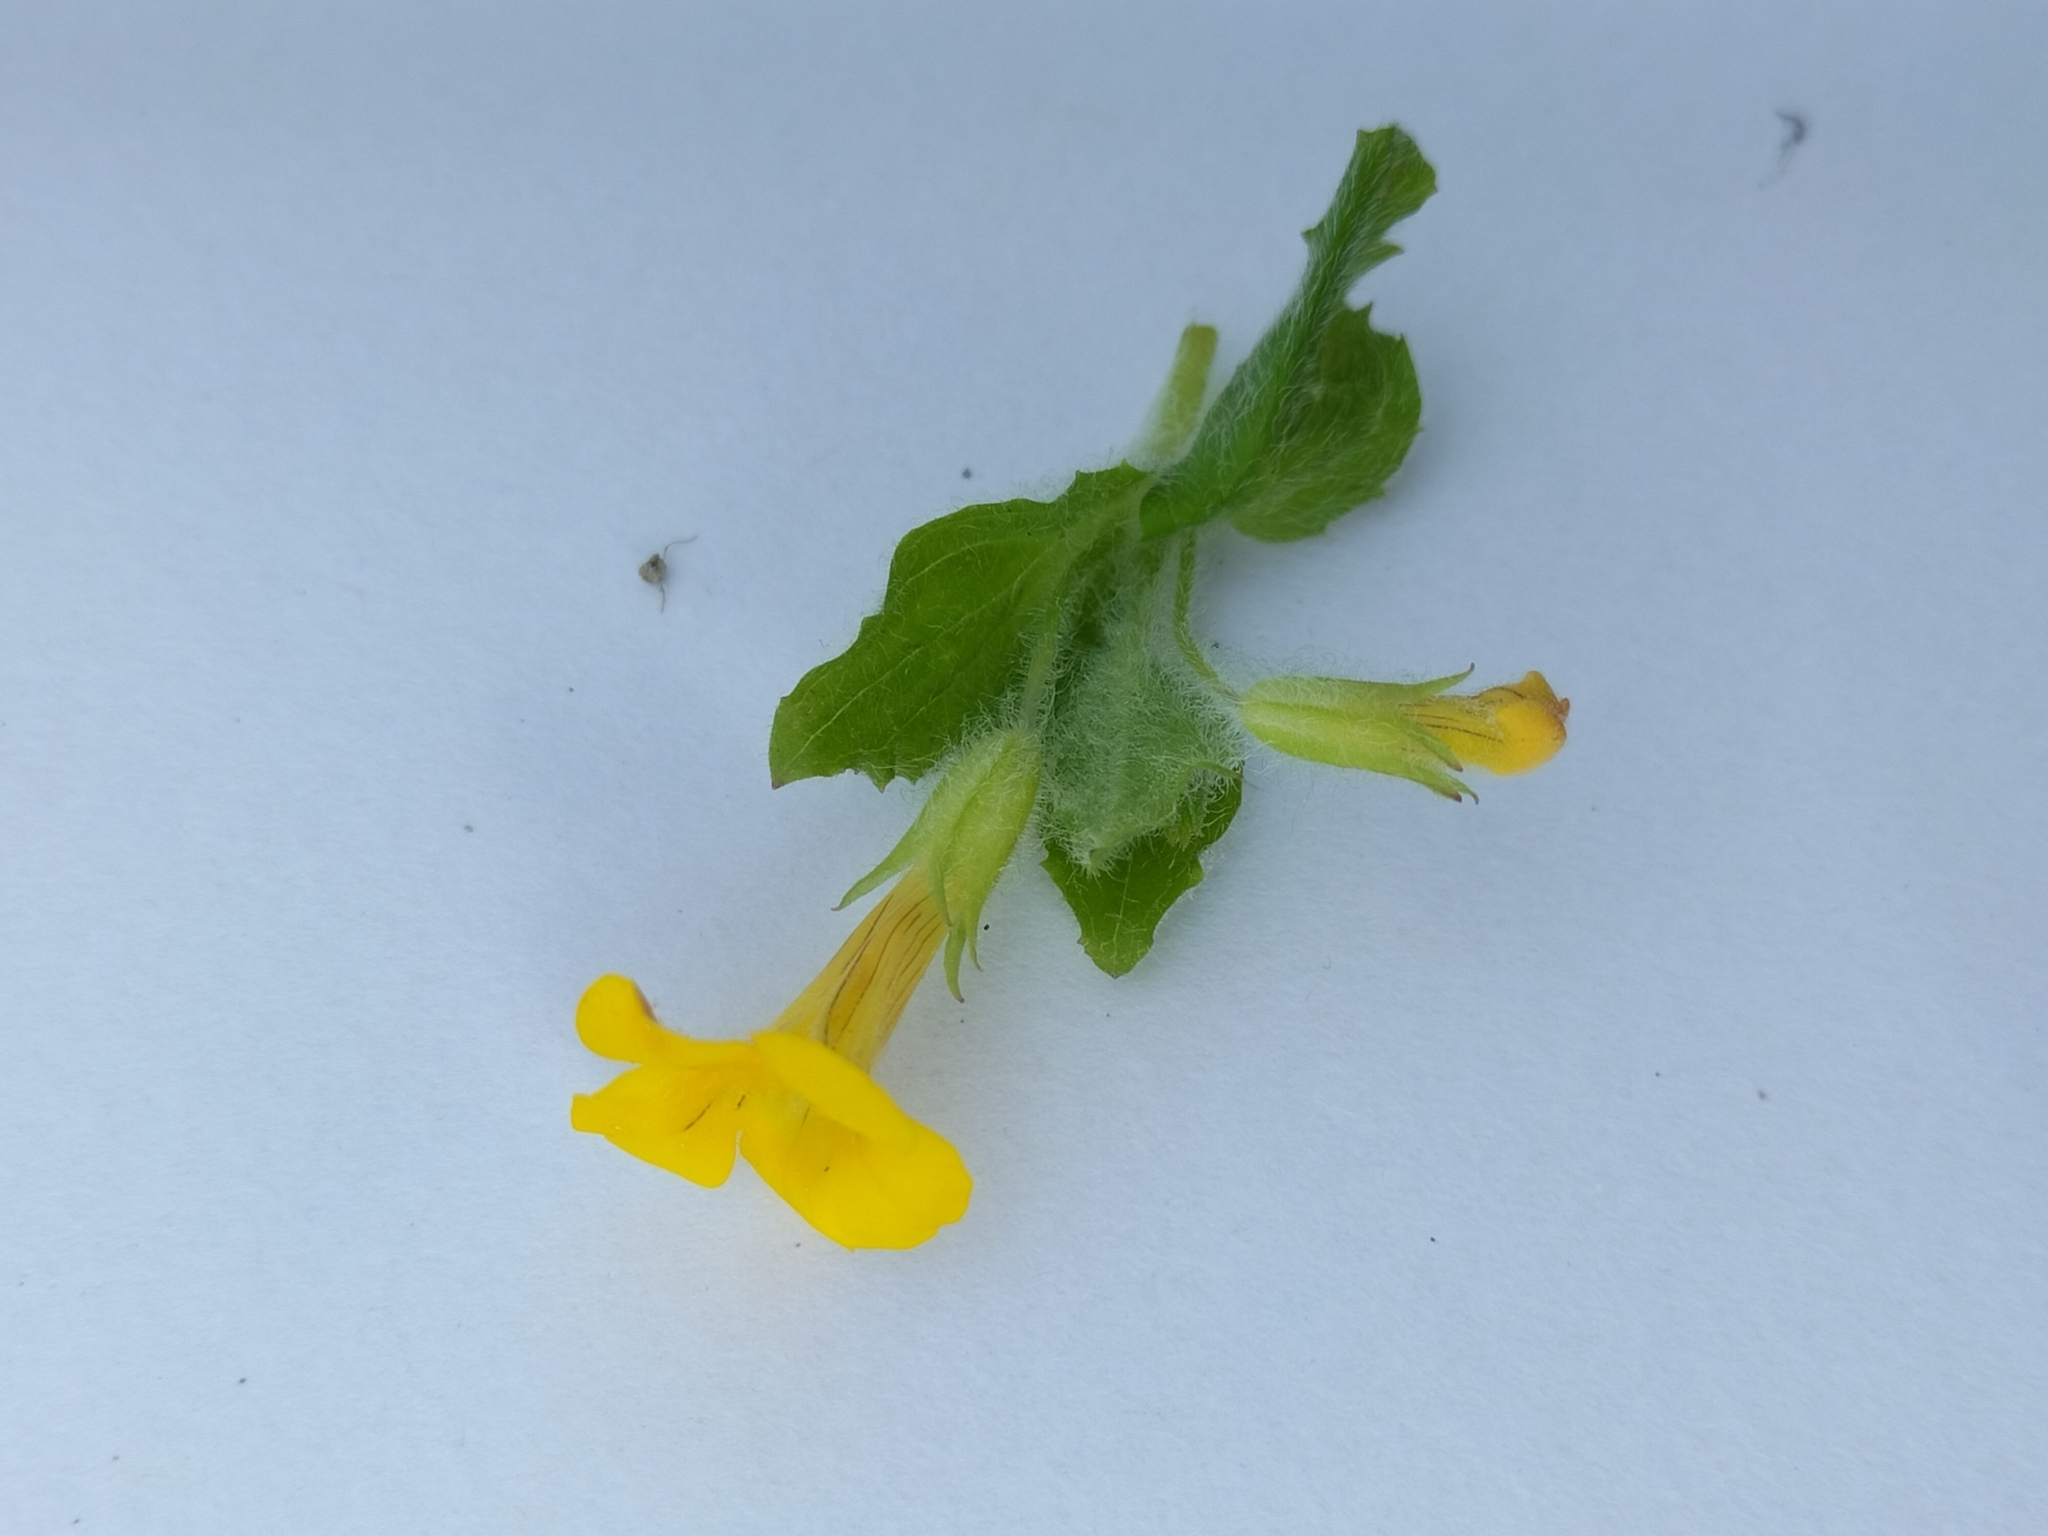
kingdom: Plantae
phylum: Tracheophyta
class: Magnoliopsida
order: Lamiales
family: Phrymaceae
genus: Erythranthe
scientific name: Erythranthe moschata
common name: Muskflower
